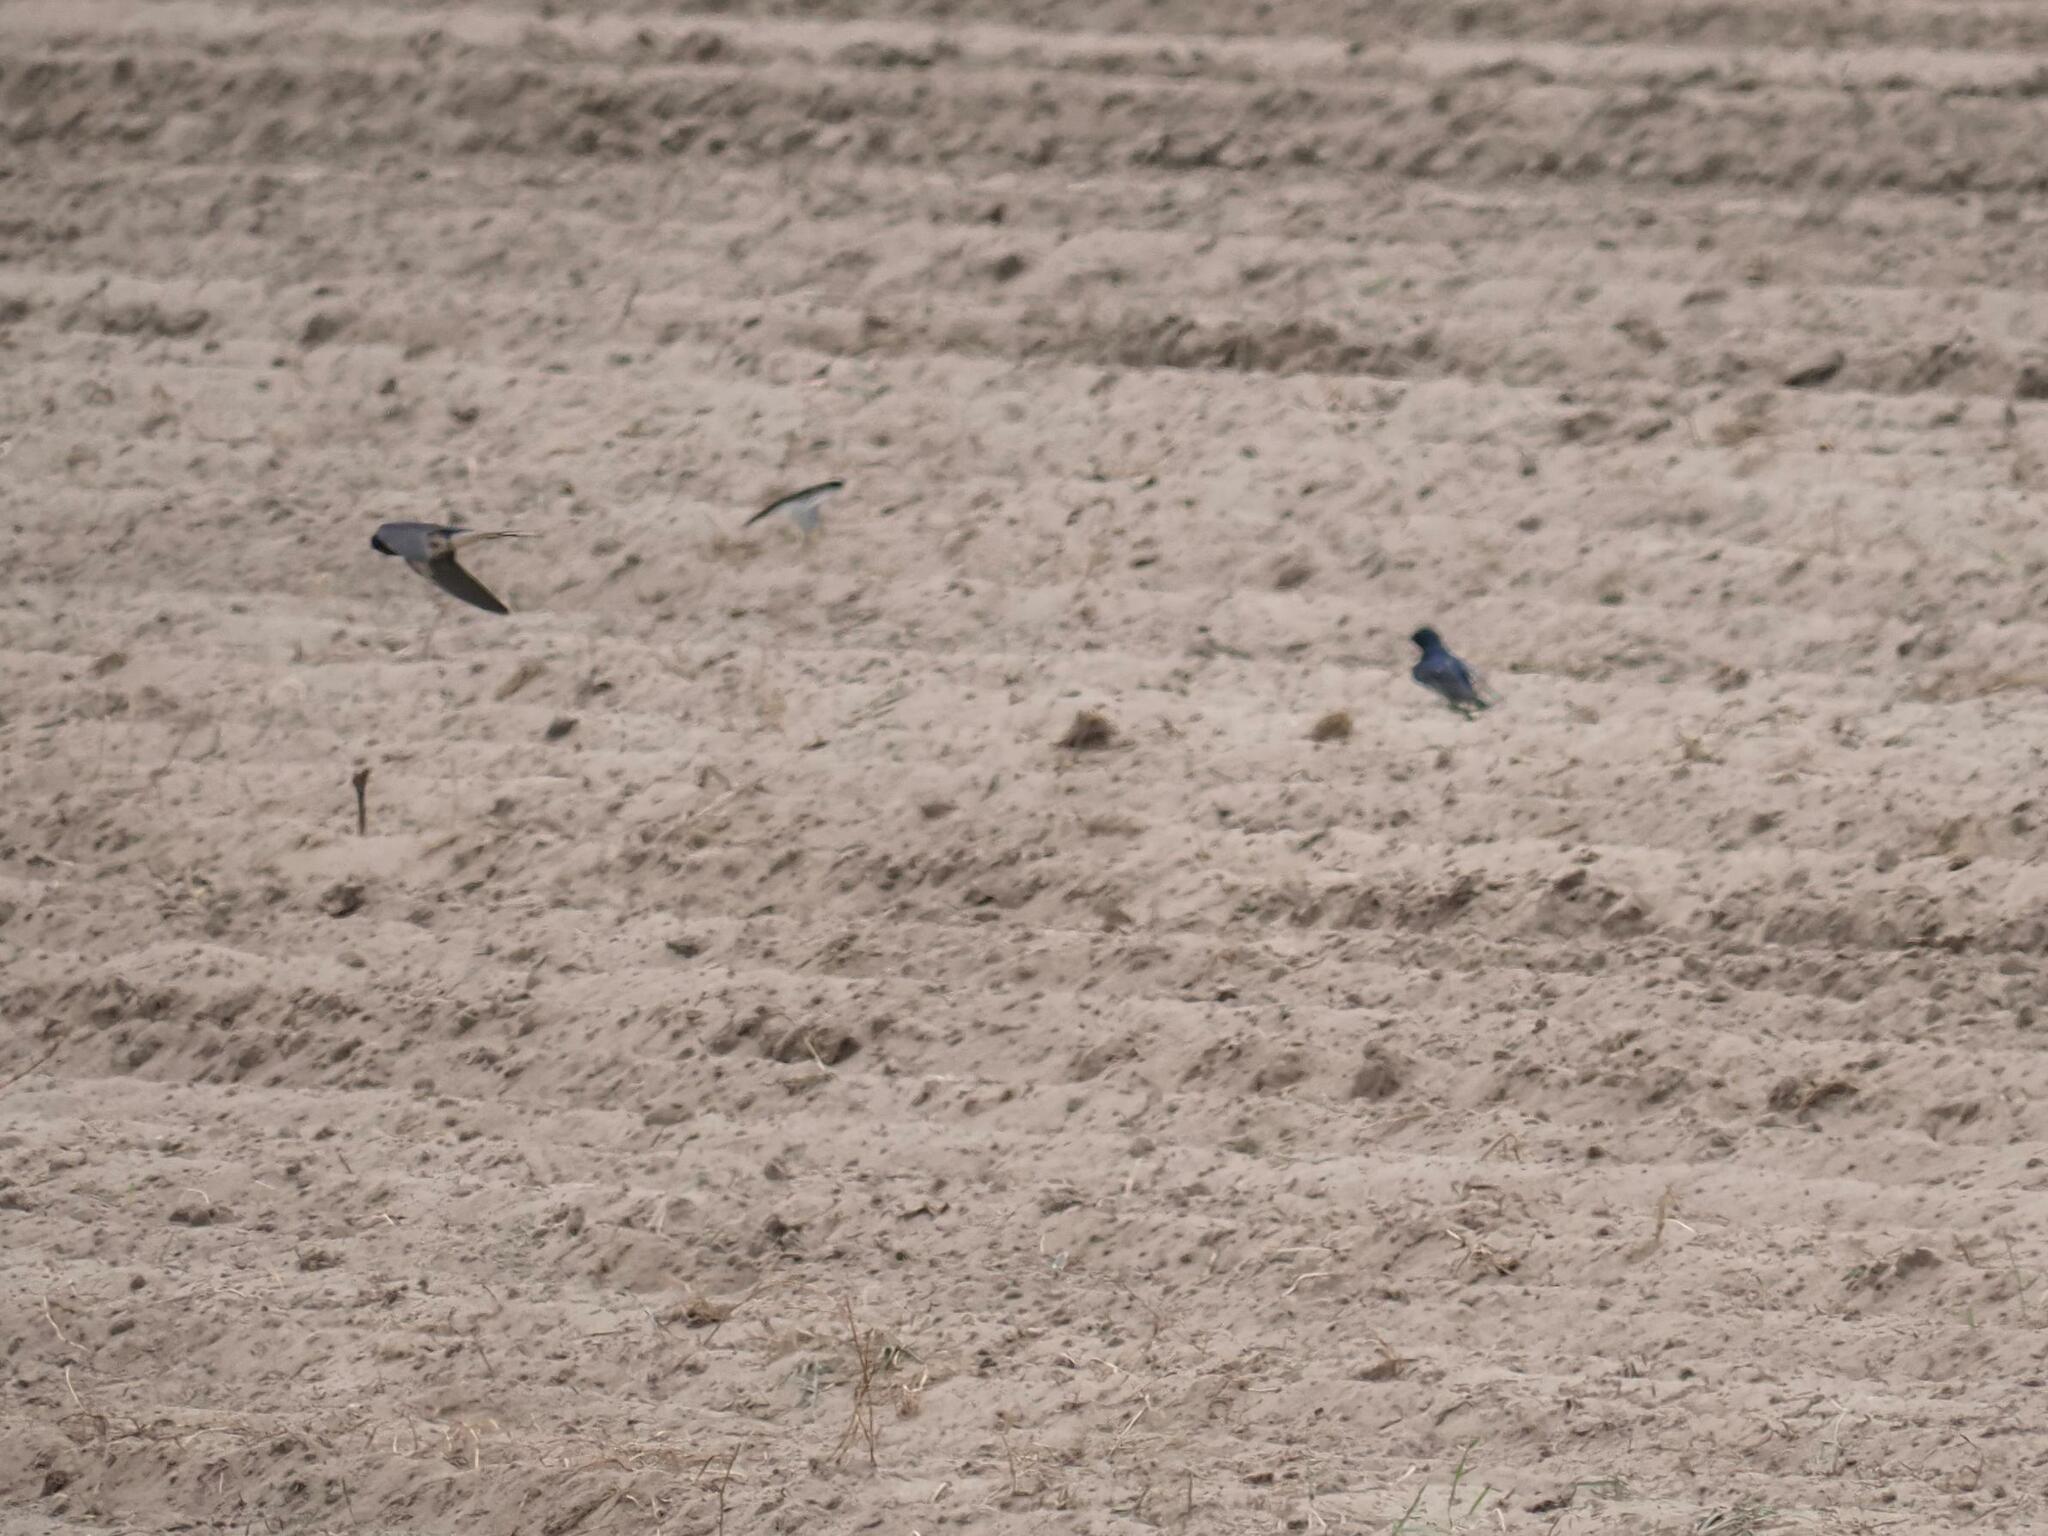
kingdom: Animalia
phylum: Chordata
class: Aves
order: Passeriformes
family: Hirundinidae
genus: Hirundo
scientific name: Hirundo rustica
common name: Barn swallow
